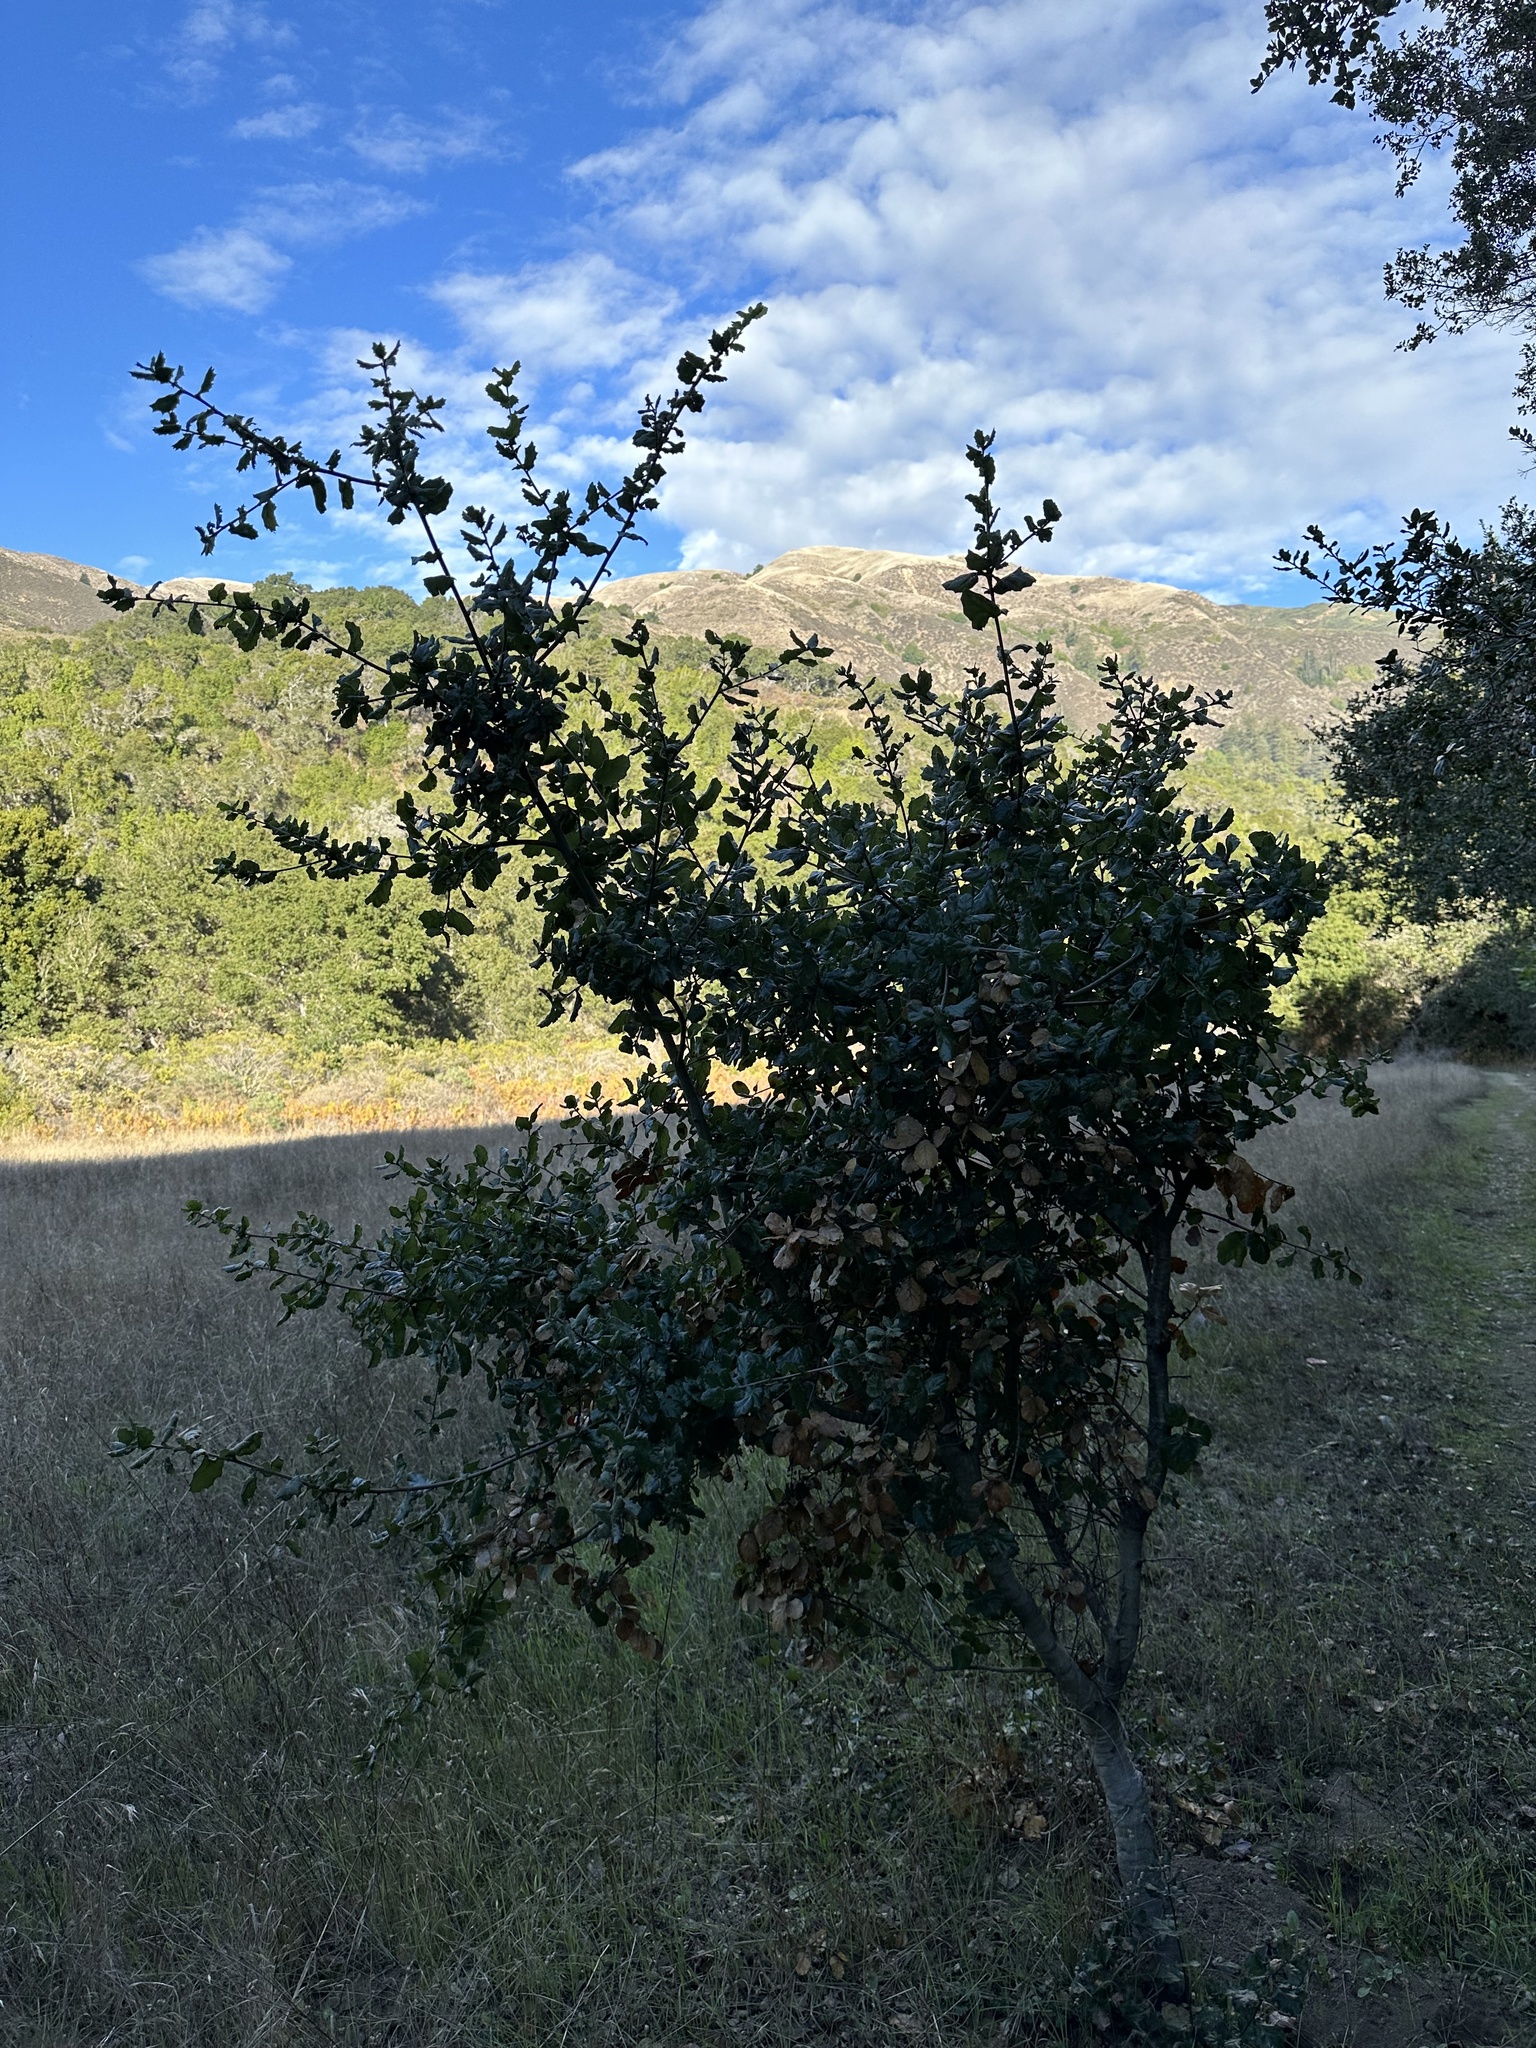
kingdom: Plantae
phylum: Tracheophyta
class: Magnoliopsida
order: Fagales
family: Fagaceae
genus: Quercus
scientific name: Quercus agrifolia
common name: California live oak
